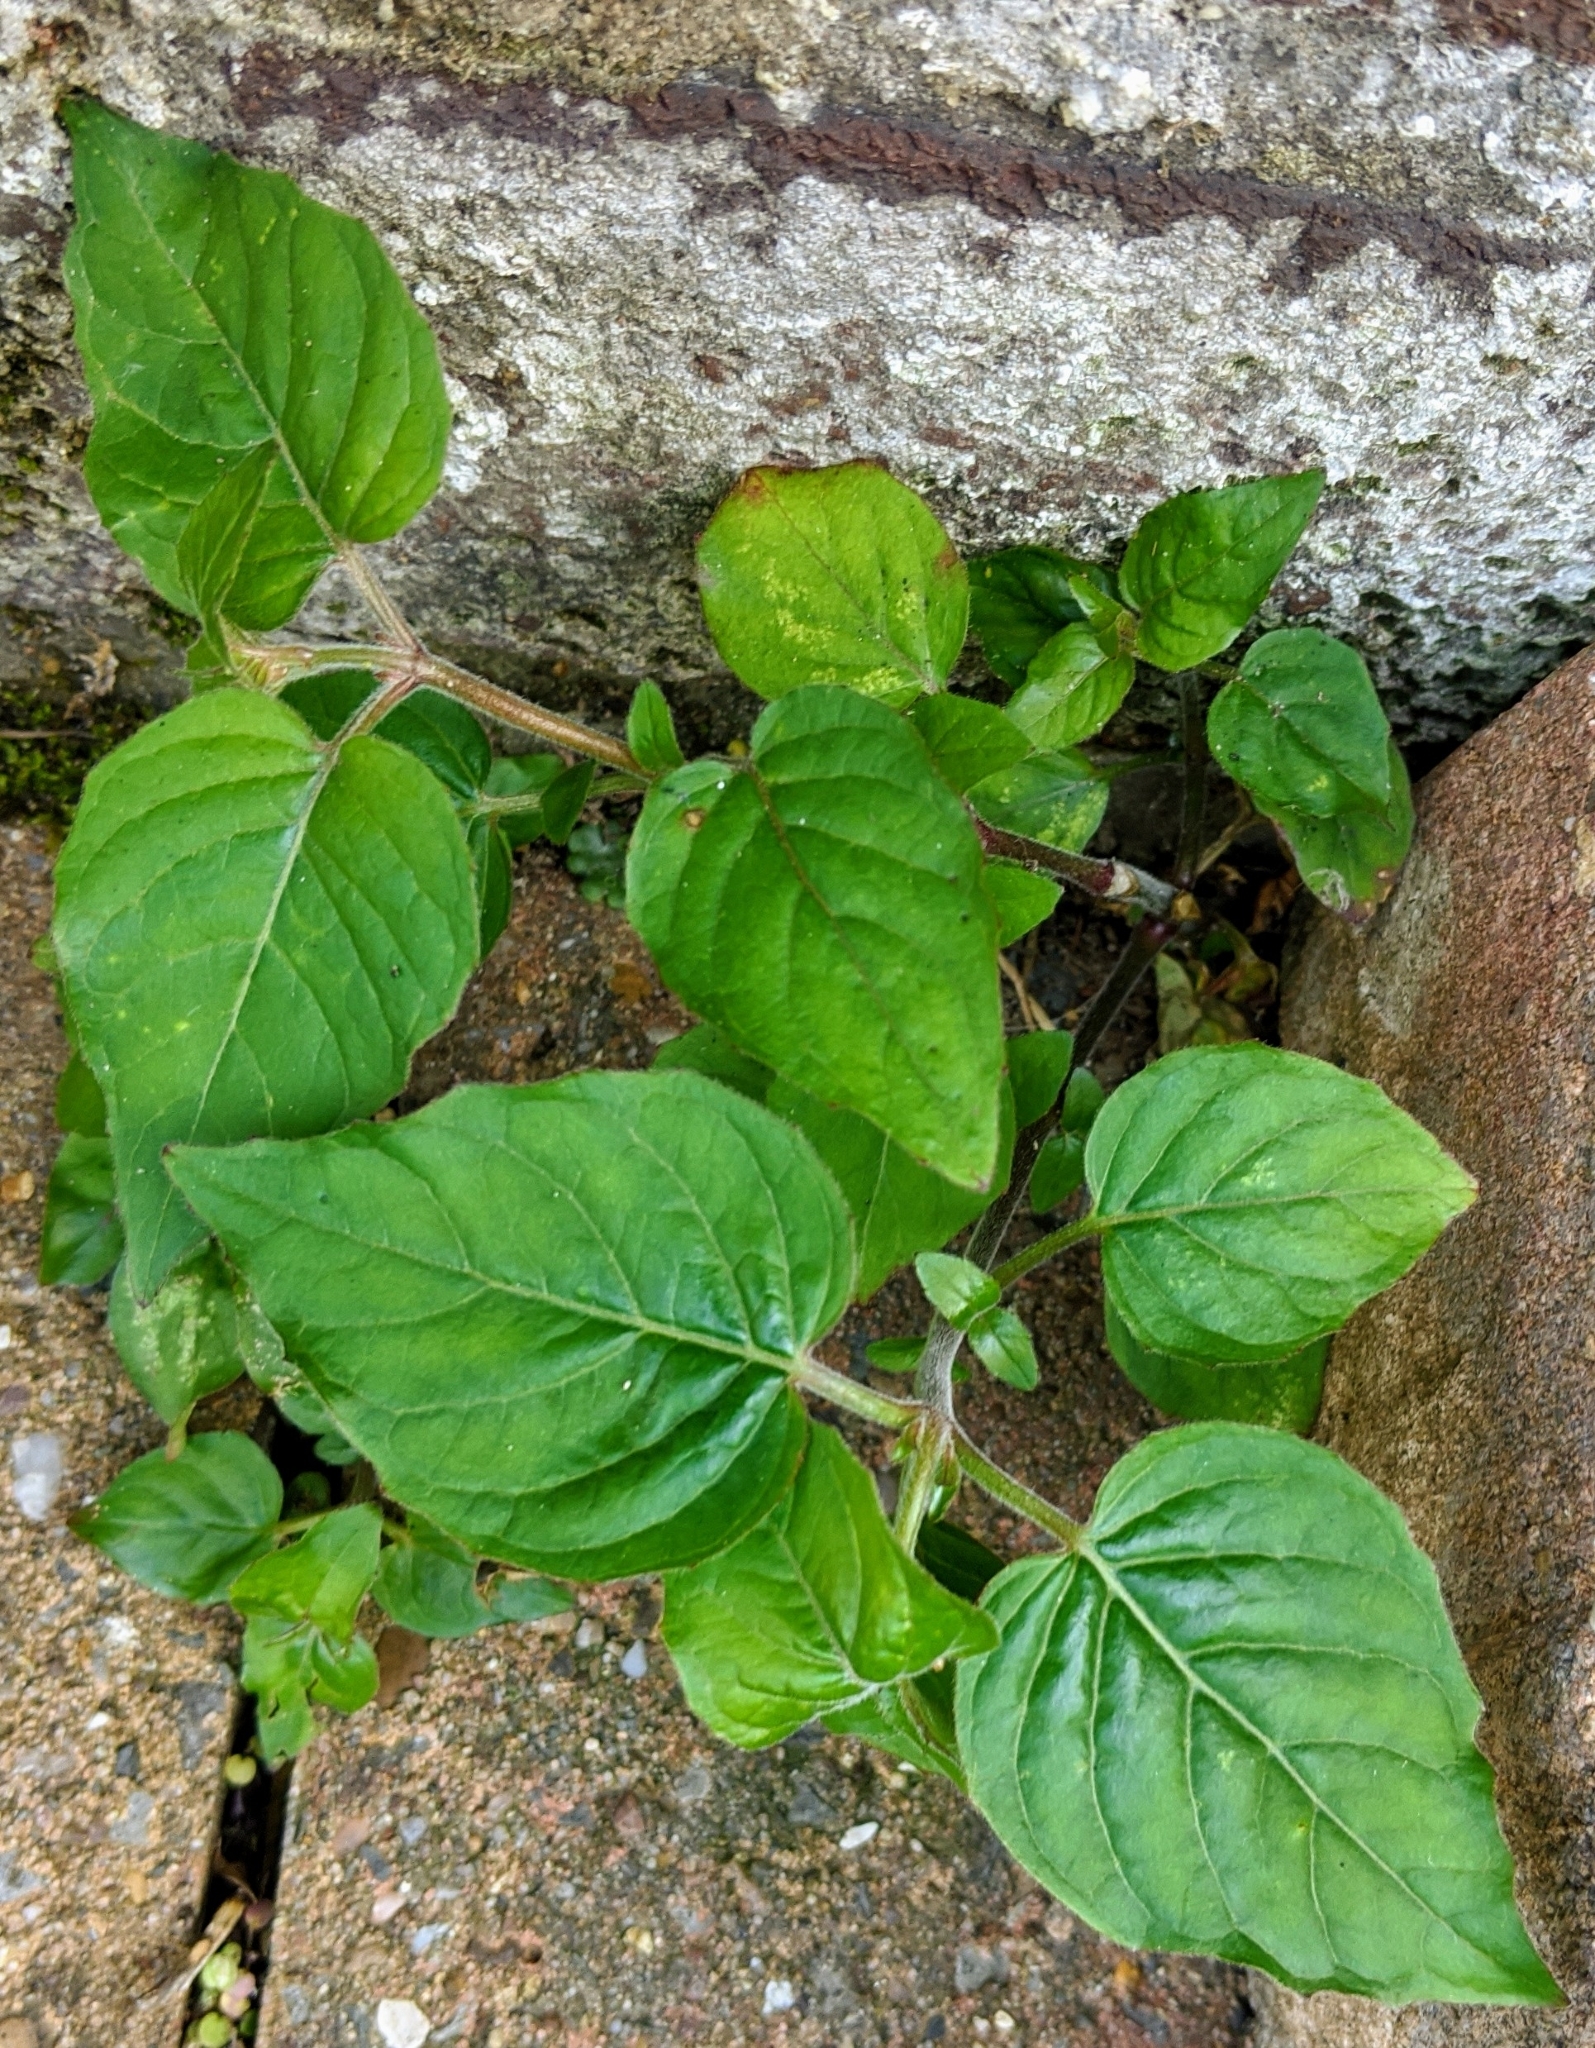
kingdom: Plantae
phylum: Tracheophyta
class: Magnoliopsida
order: Myrtales
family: Onagraceae
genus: Circaea
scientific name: Circaea lutetiana
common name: Enchanter's-nightshade
